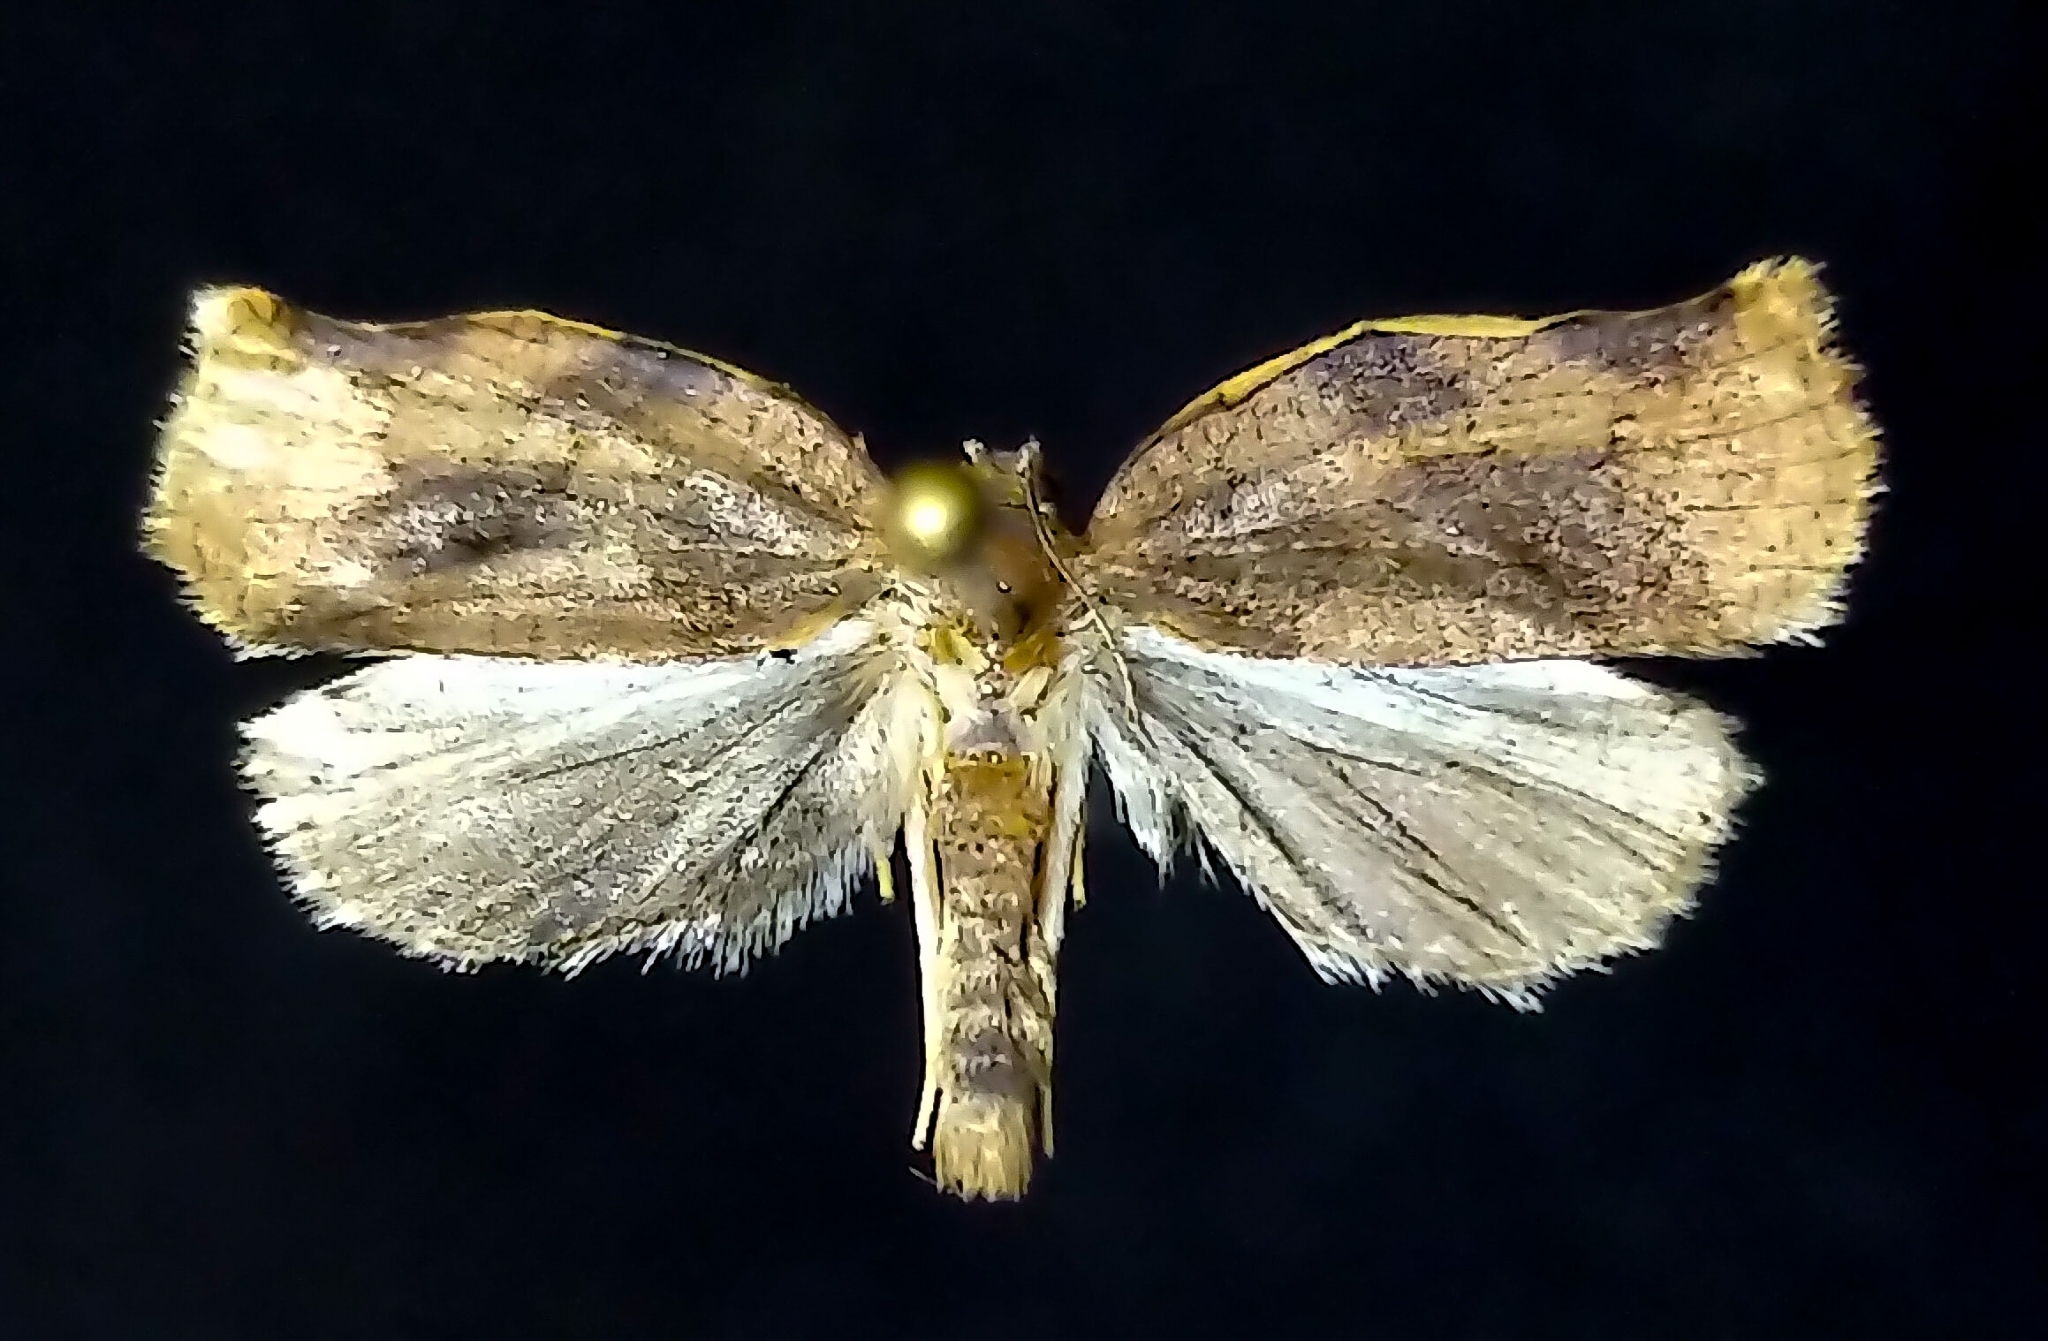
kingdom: Animalia
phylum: Arthropoda
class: Insecta
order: Lepidoptera
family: Tortricidae
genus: Archips
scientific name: Archips purpurana
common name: Omnivorous leafroller
